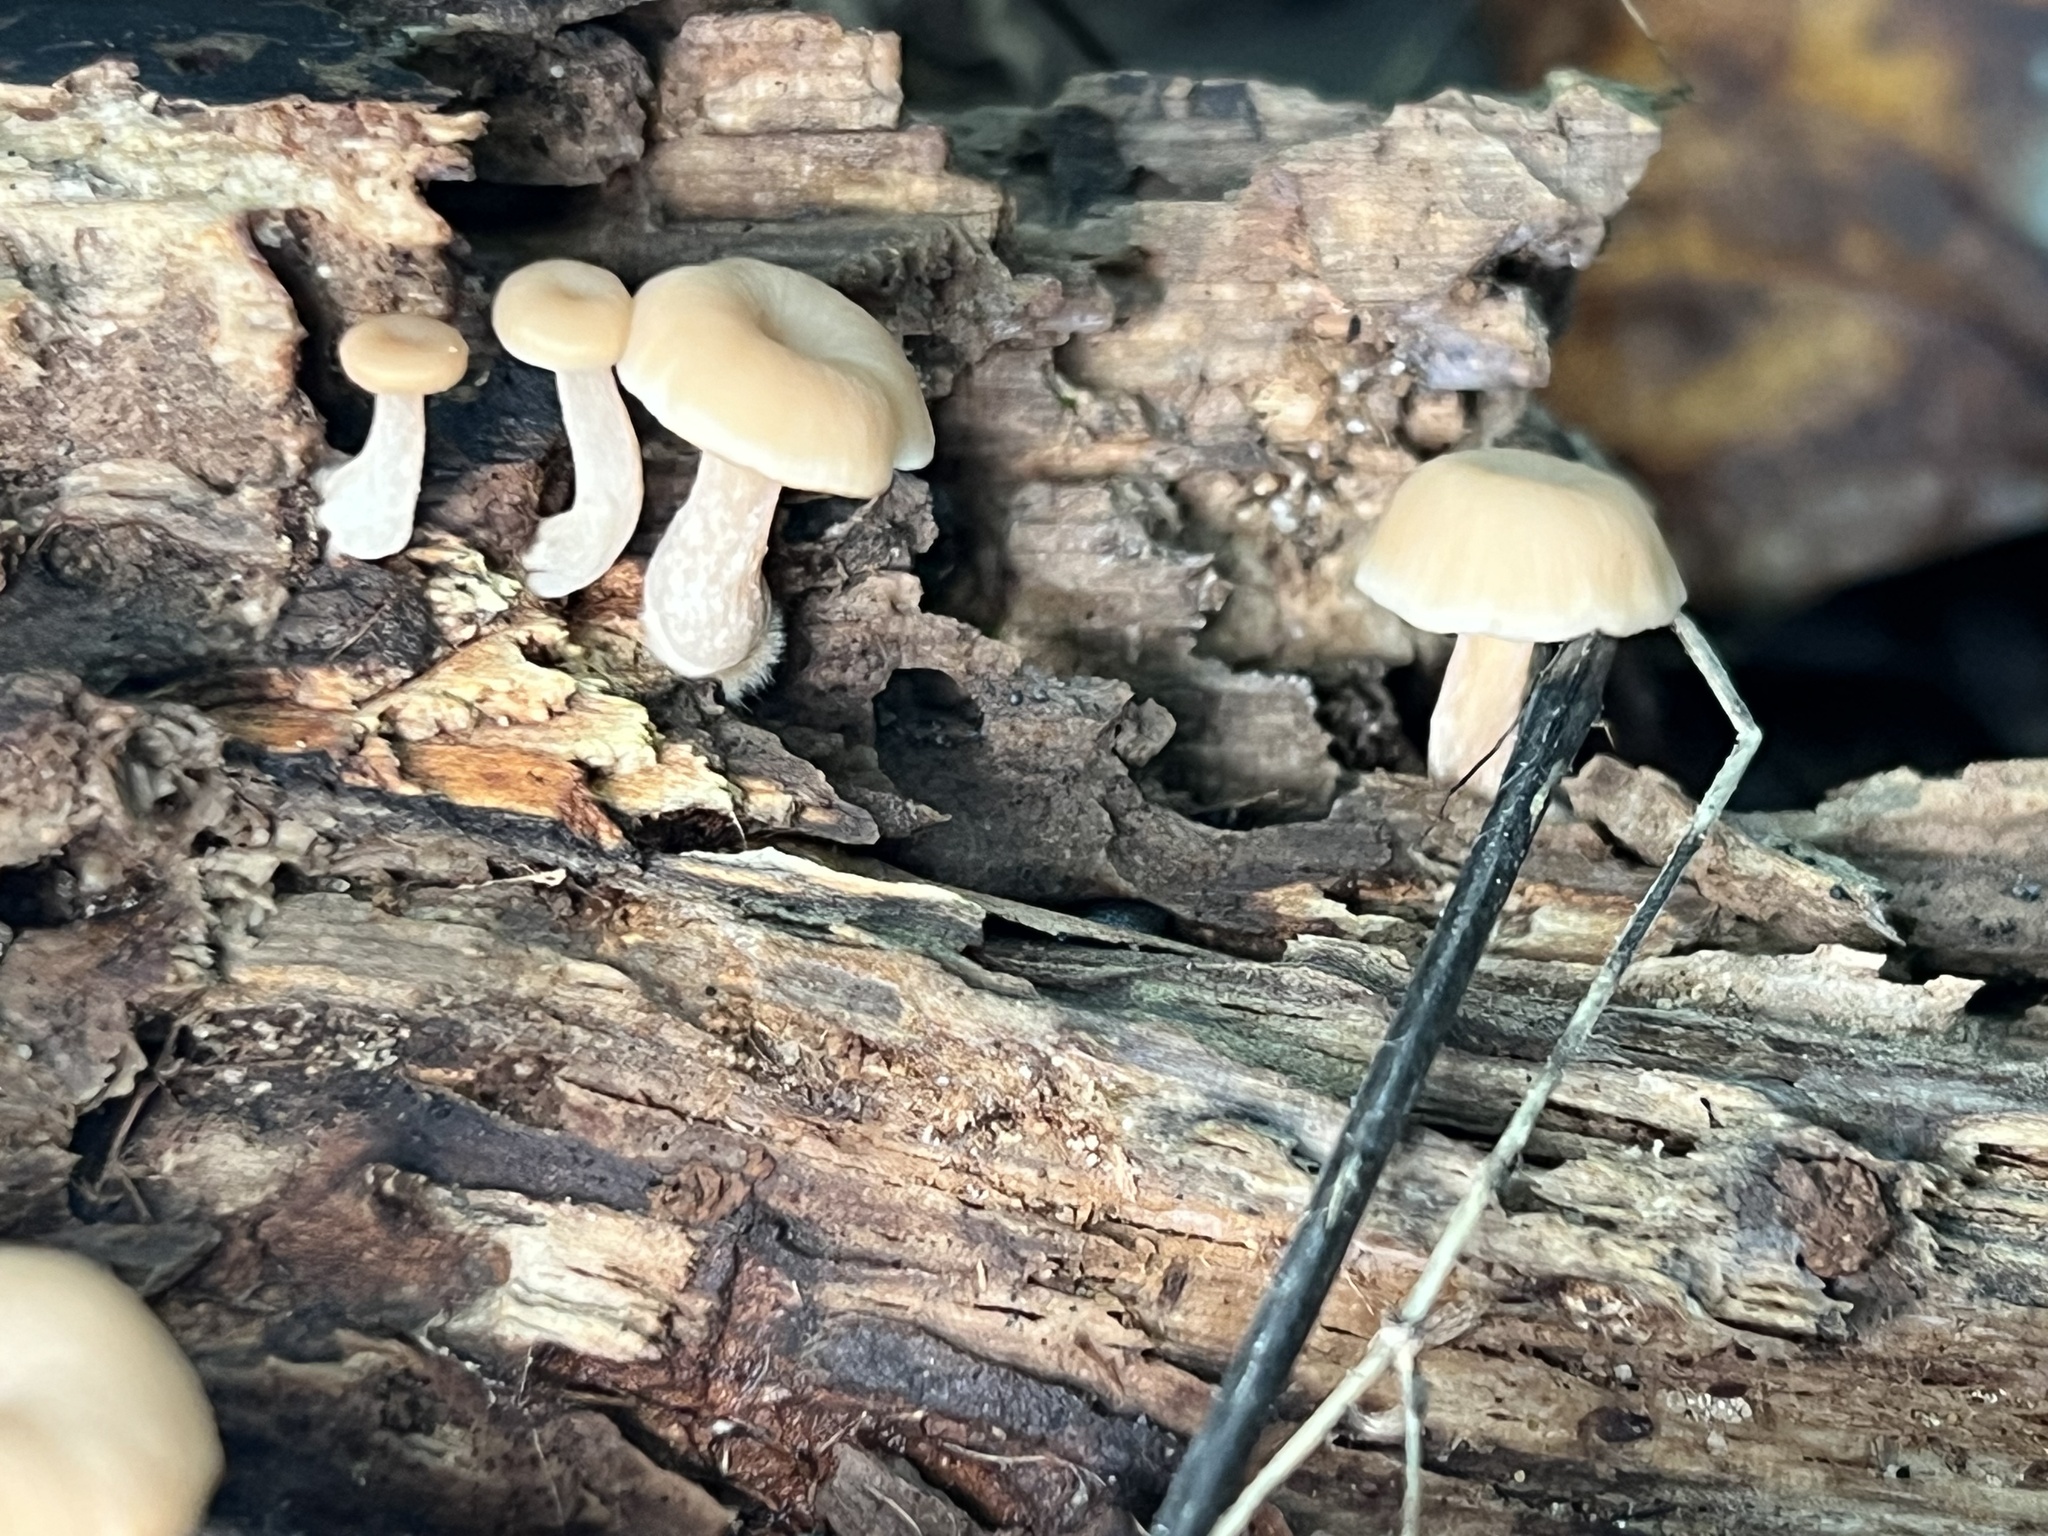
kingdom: Fungi
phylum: Basidiomycota
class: Agaricomycetes
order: Russulales
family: Auriscalpiaceae
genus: Lentinellus
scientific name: Lentinellus micheneri
